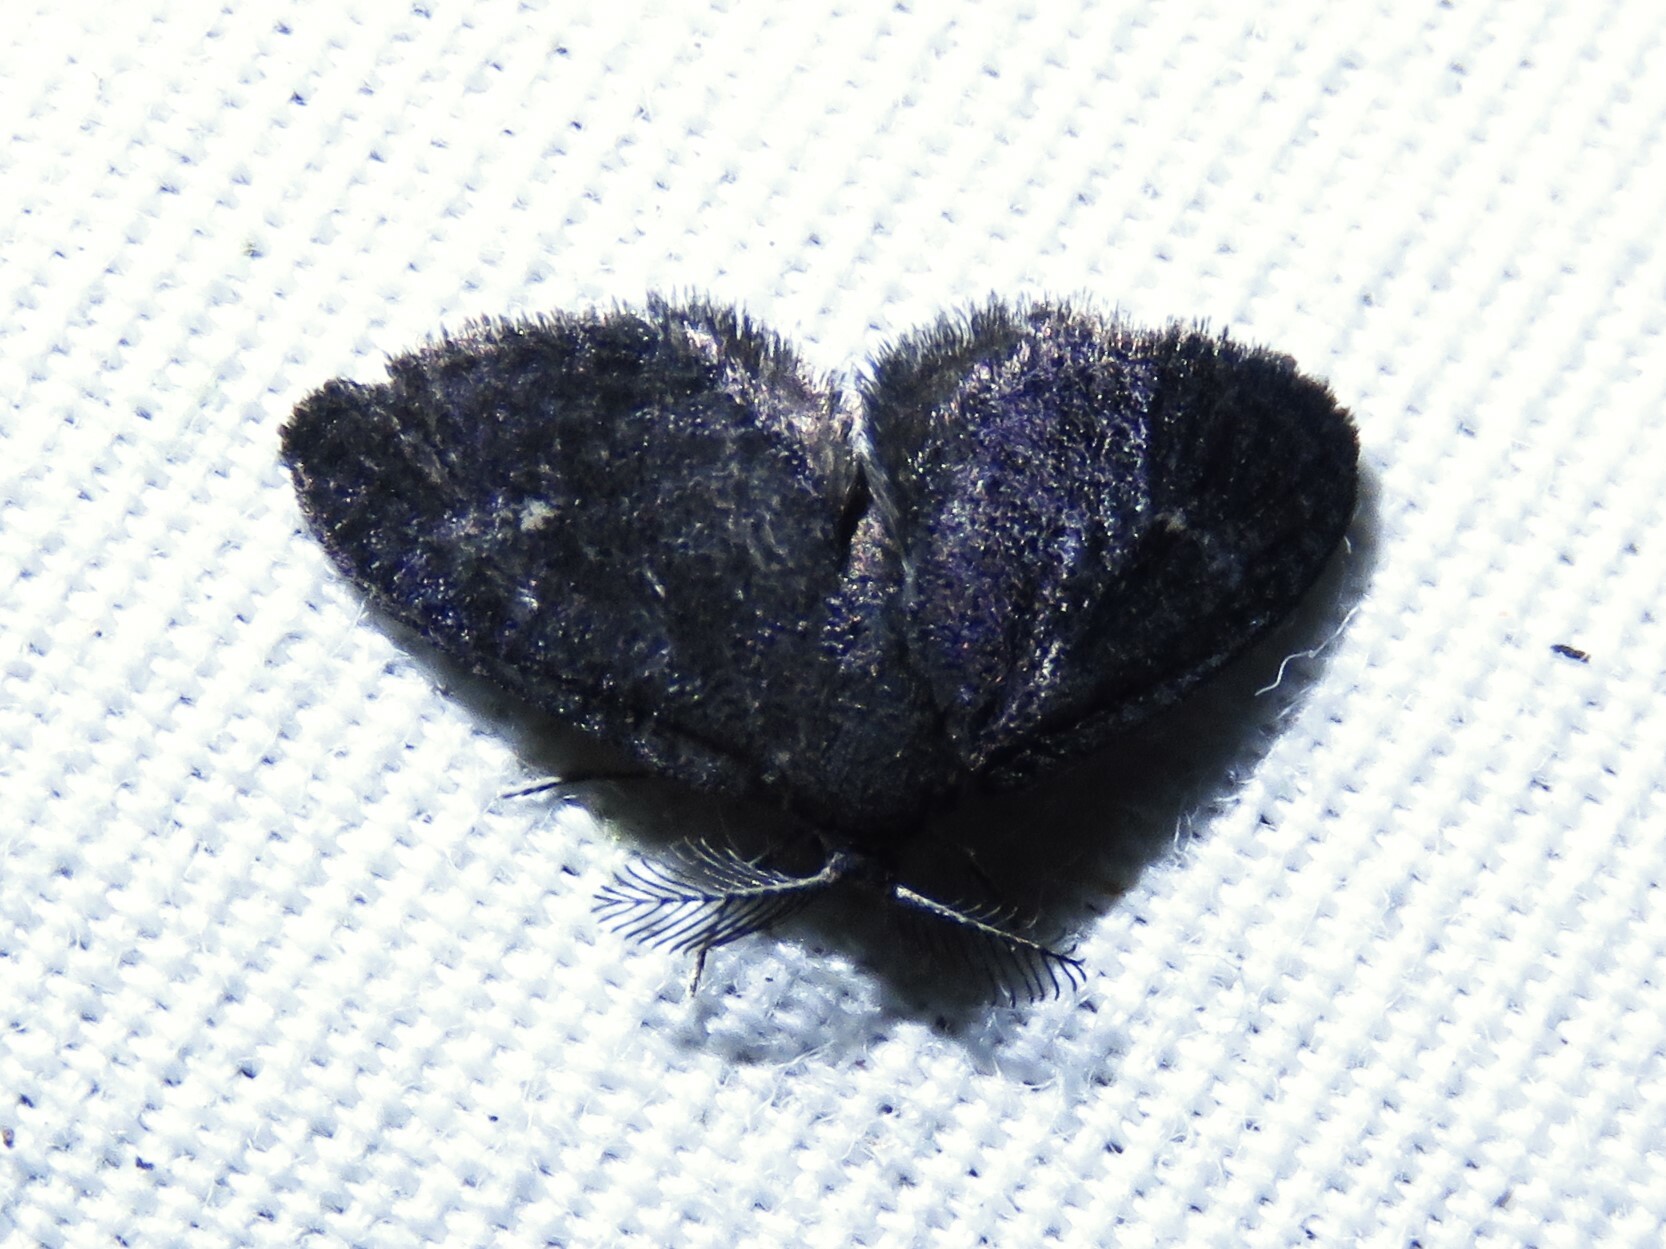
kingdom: Animalia
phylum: Arthropoda
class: Insecta
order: Lepidoptera
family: Epipyropidae
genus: Fulgoraecia
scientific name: Fulgoraecia exigua
